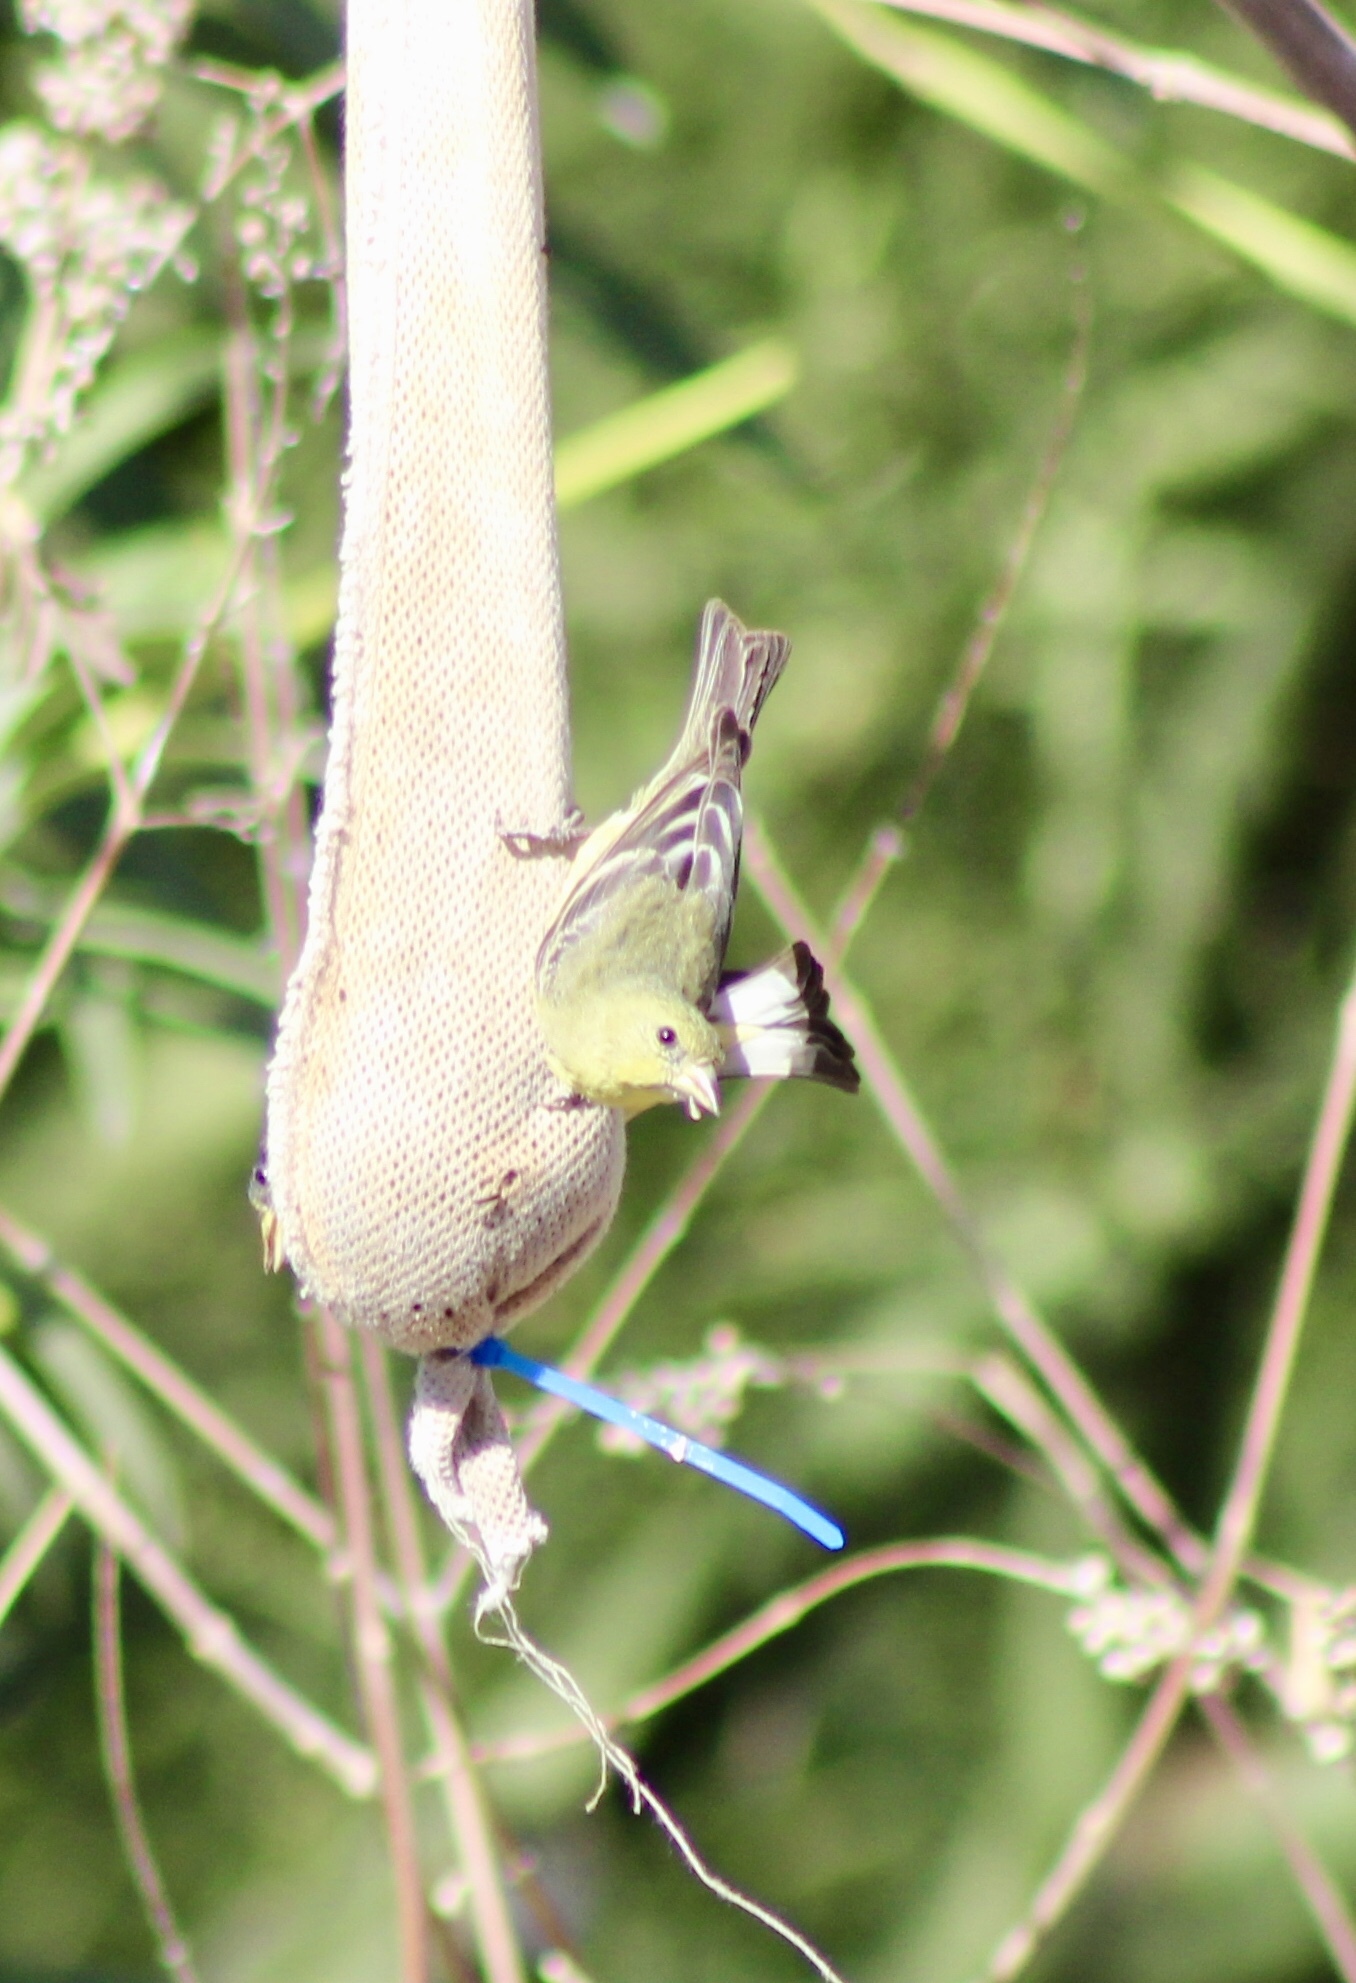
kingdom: Animalia
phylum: Chordata
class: Aves
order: Passeriformes
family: Fringillidae
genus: Spinus
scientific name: Spinus psaltria
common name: Lesser goldfinch
